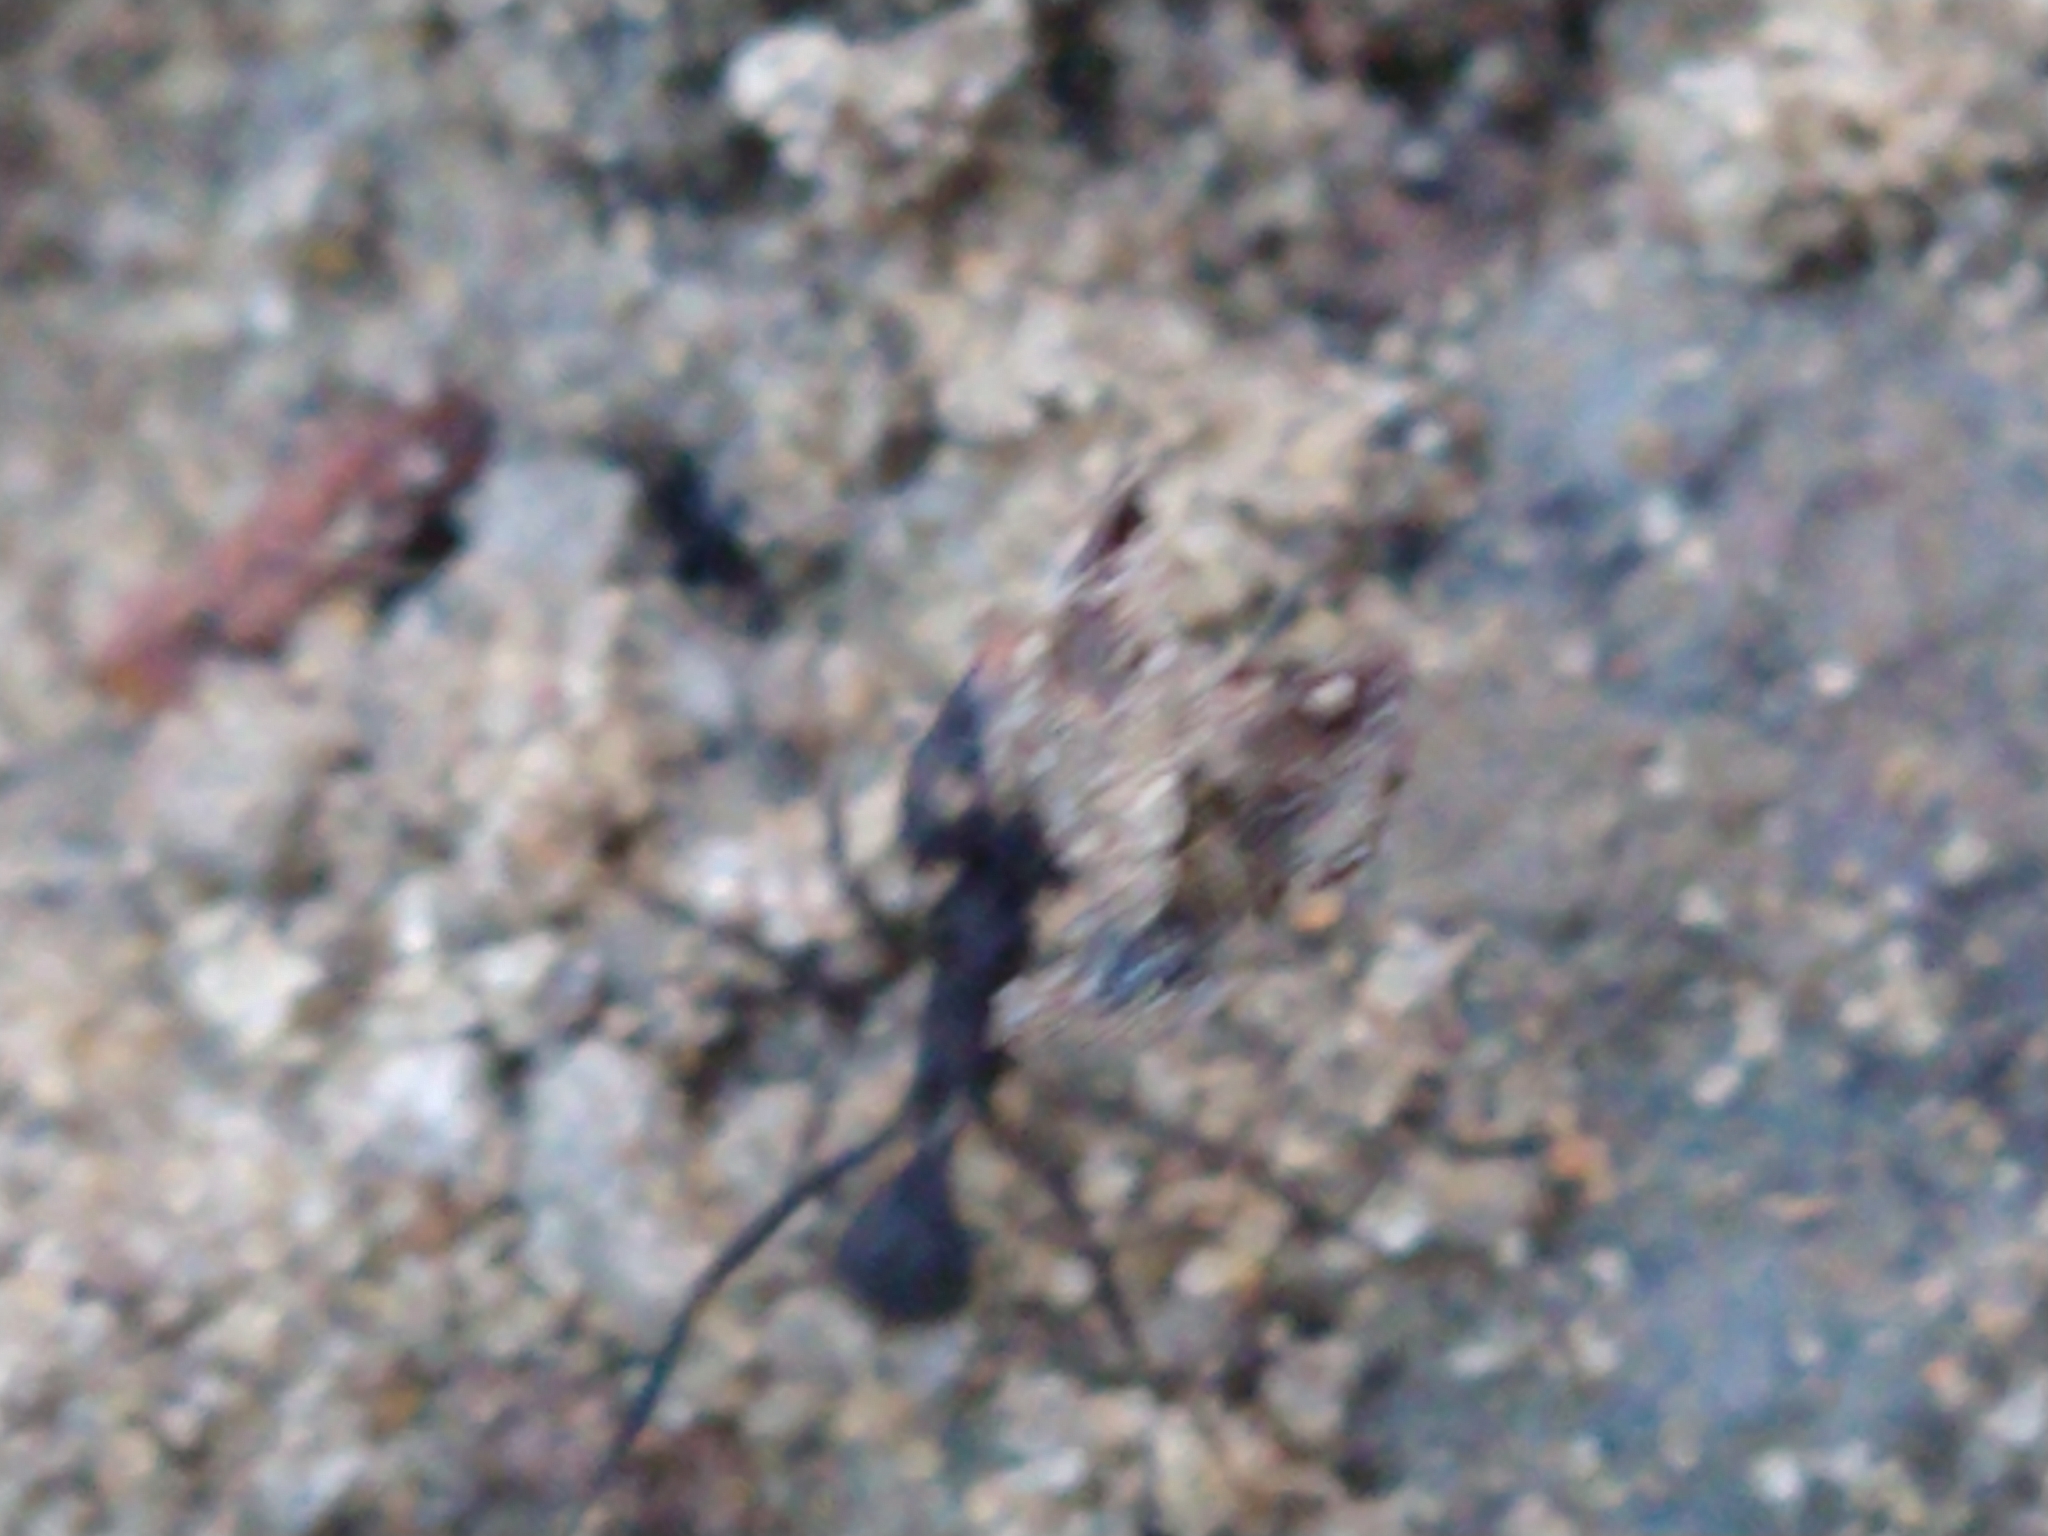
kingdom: Animalia
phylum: Arthropoda
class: Insecta
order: Hymenoptera
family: Formicidae
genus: Acromyrmex
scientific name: Acromyrmex
